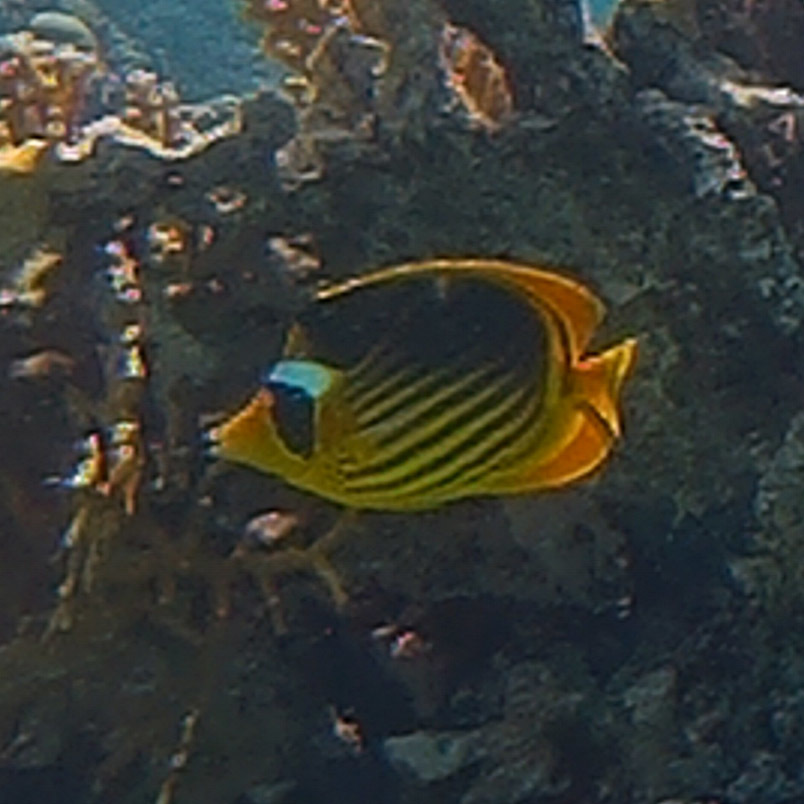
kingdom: Animalia
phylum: Chordata
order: Perciformes
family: Chaetodontidae
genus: Chaetodon
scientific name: Chaetodon fasciatus
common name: Diagonal butterflyfish
